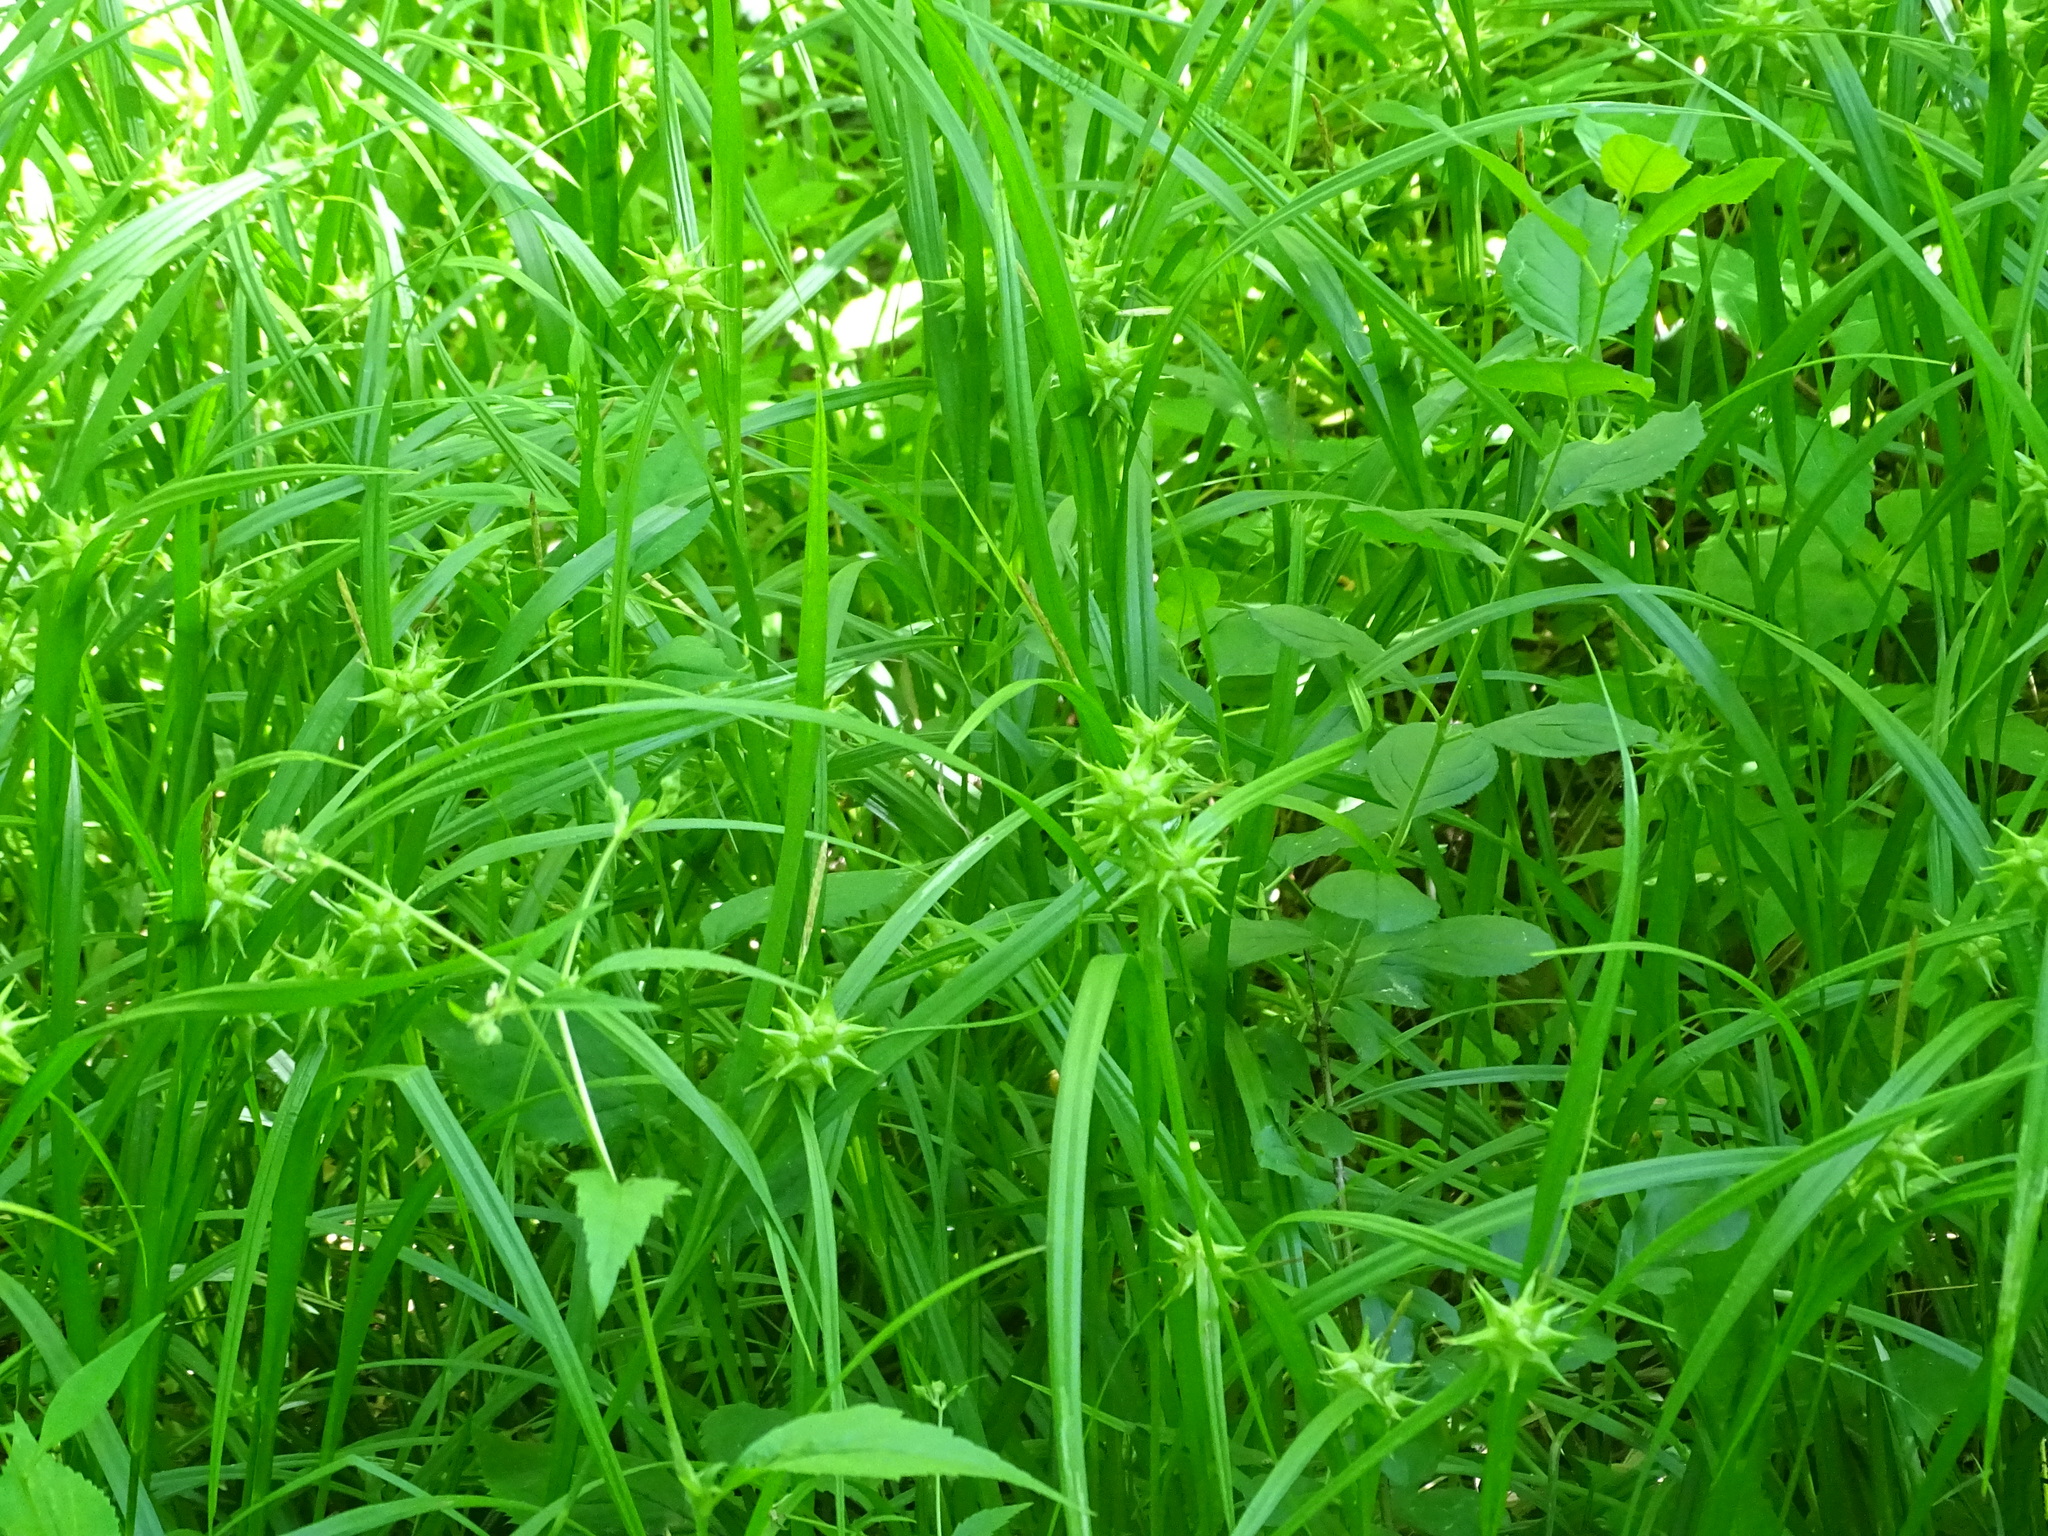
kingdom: Plantae
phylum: Tracheophyta
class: Liliopsida
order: Poales
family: Cyperaceae
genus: Carex
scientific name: Carex grayi
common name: Asa gray's sedge
